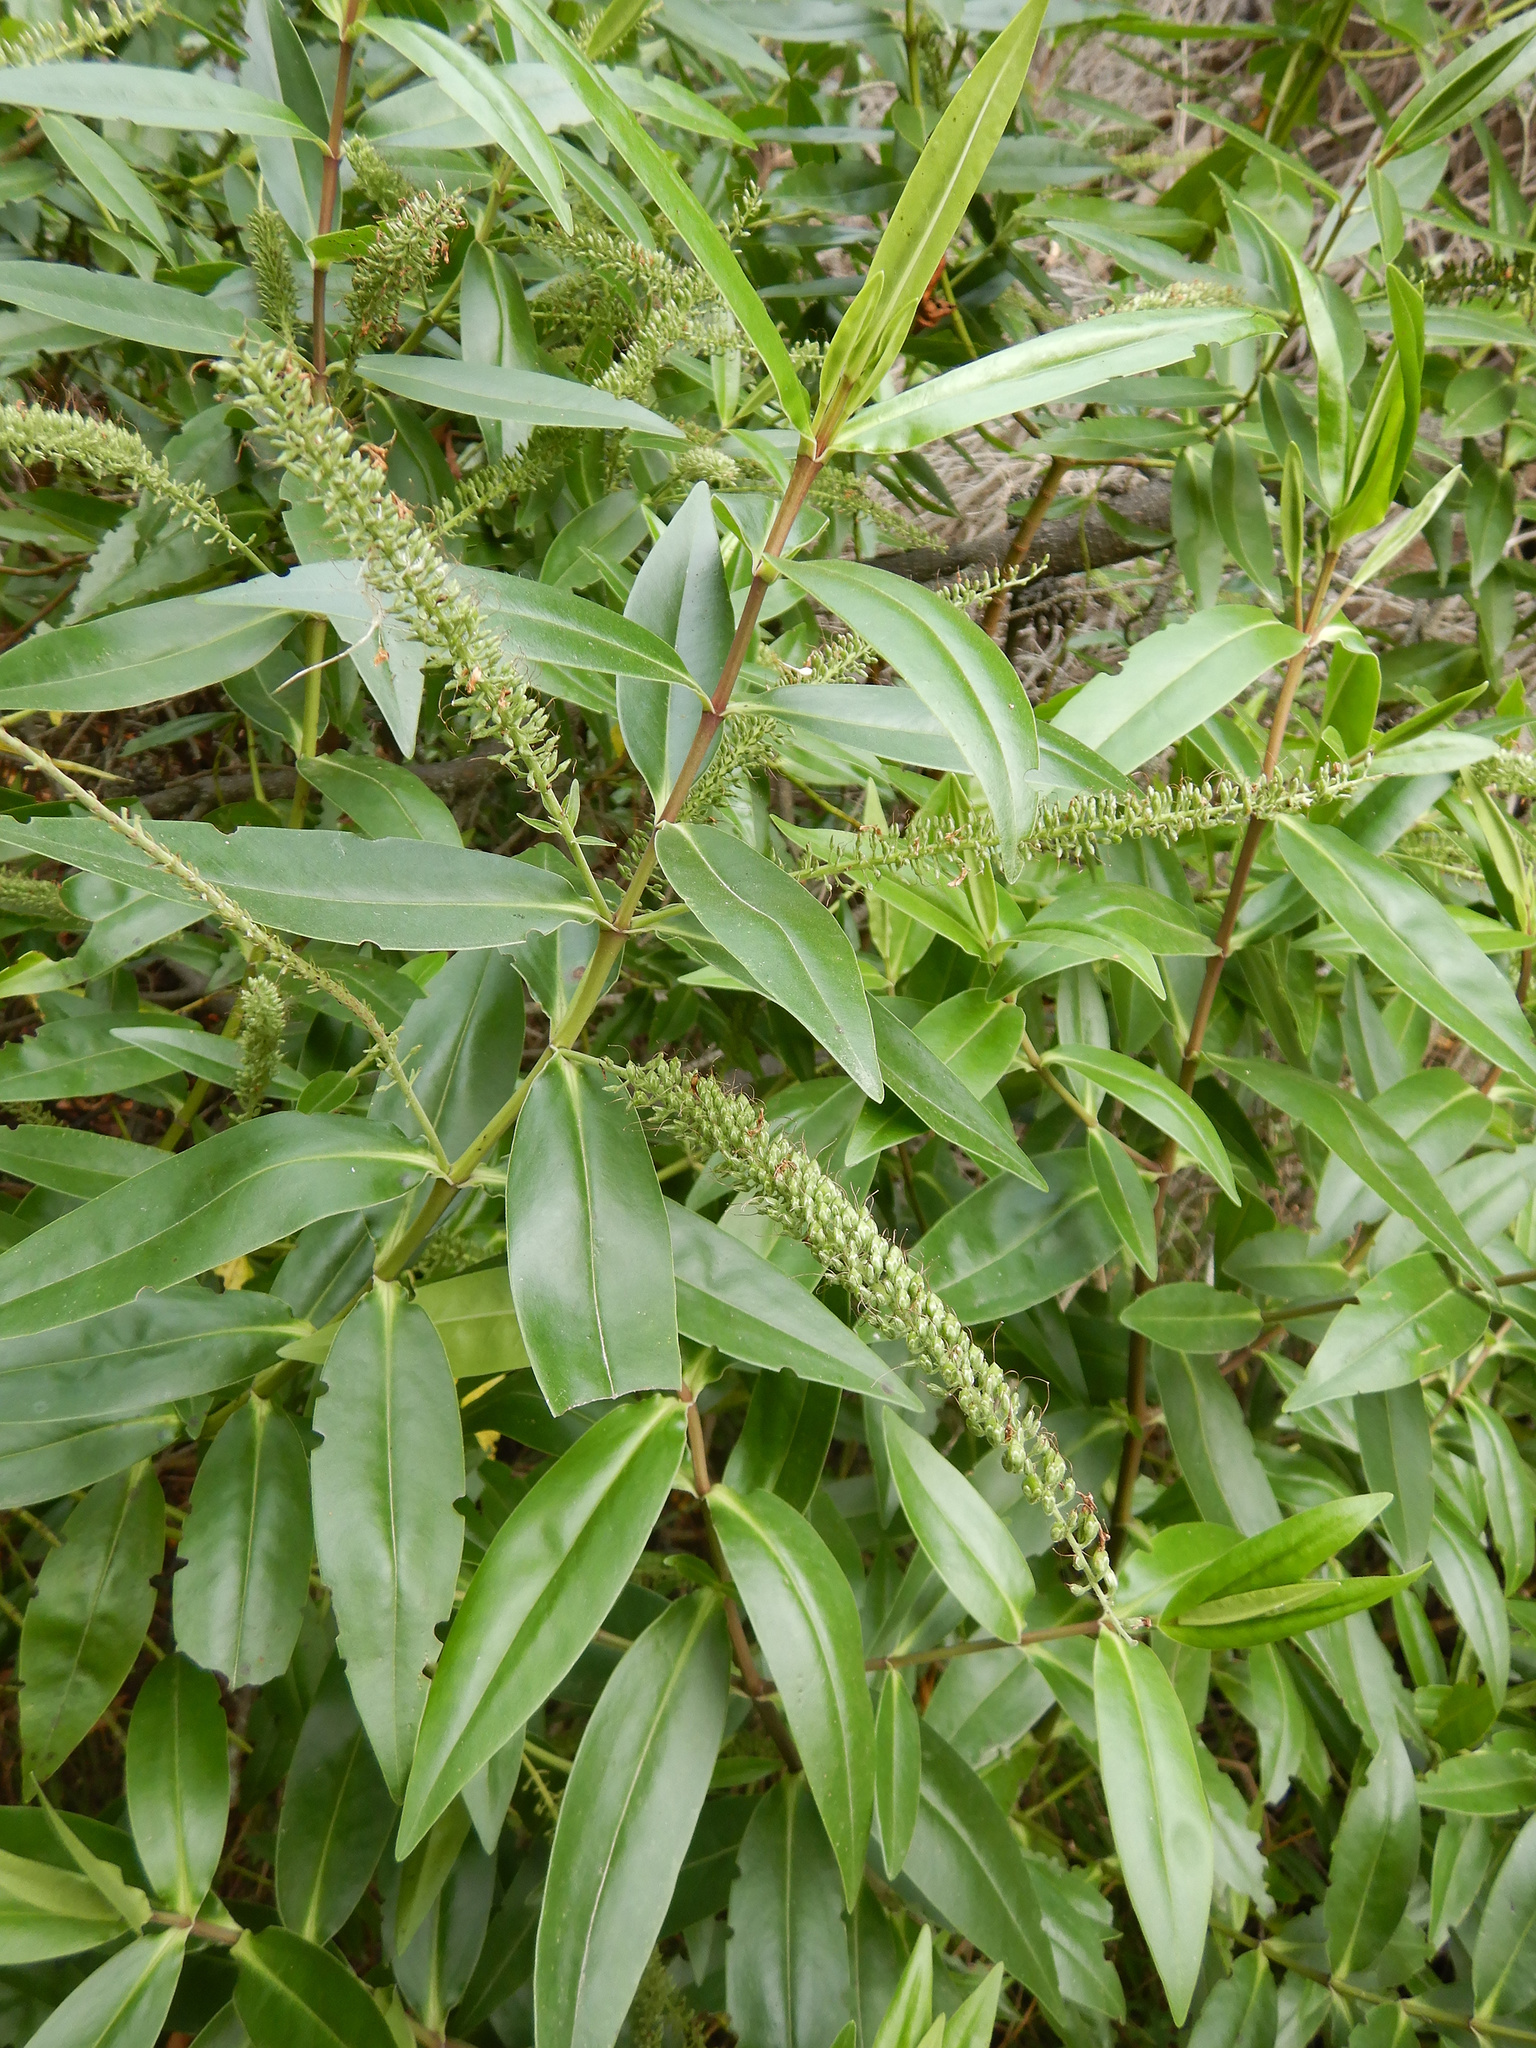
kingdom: Plantae
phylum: Tracheophyta
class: Magnoliopsida
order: Lamiales
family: Plantaginaceae
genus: Veronica
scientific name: Veronica salicifolia
